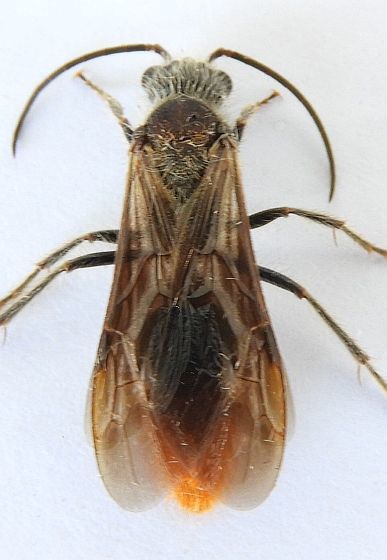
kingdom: Animalia
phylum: Arthropoda
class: Insecta
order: Hymenoptera
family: Mutillidae
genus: Sphaeropthalma
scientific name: Sphaeropthalma marpesia
